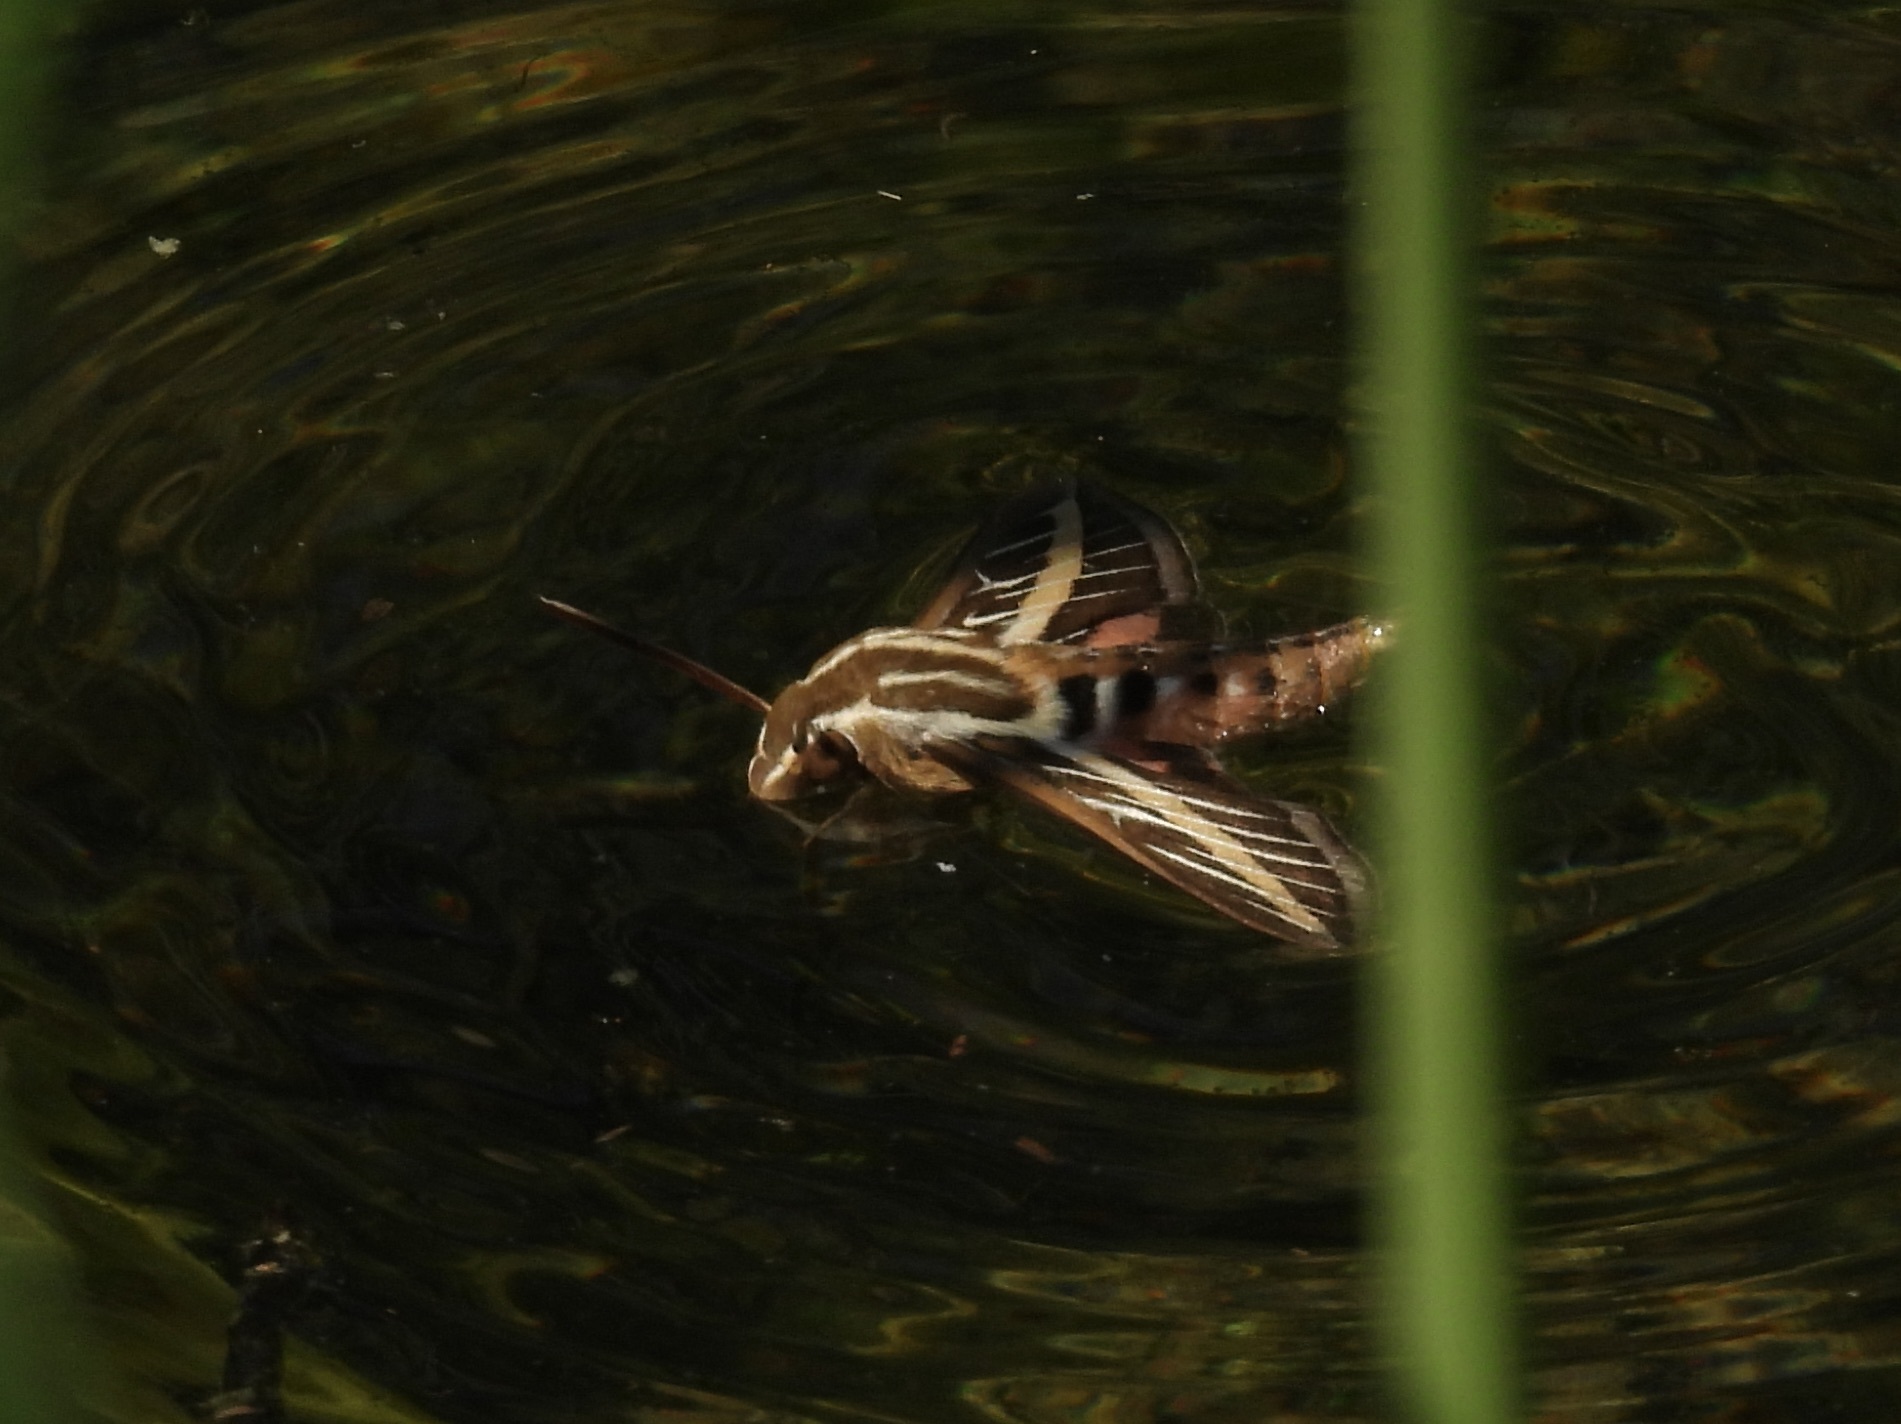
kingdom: Animalia
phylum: Arthropoda
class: Insecta
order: Lepidoptera
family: Sphingidae
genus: Hyles
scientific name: Hyles lineata
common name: White-lined sphinx
